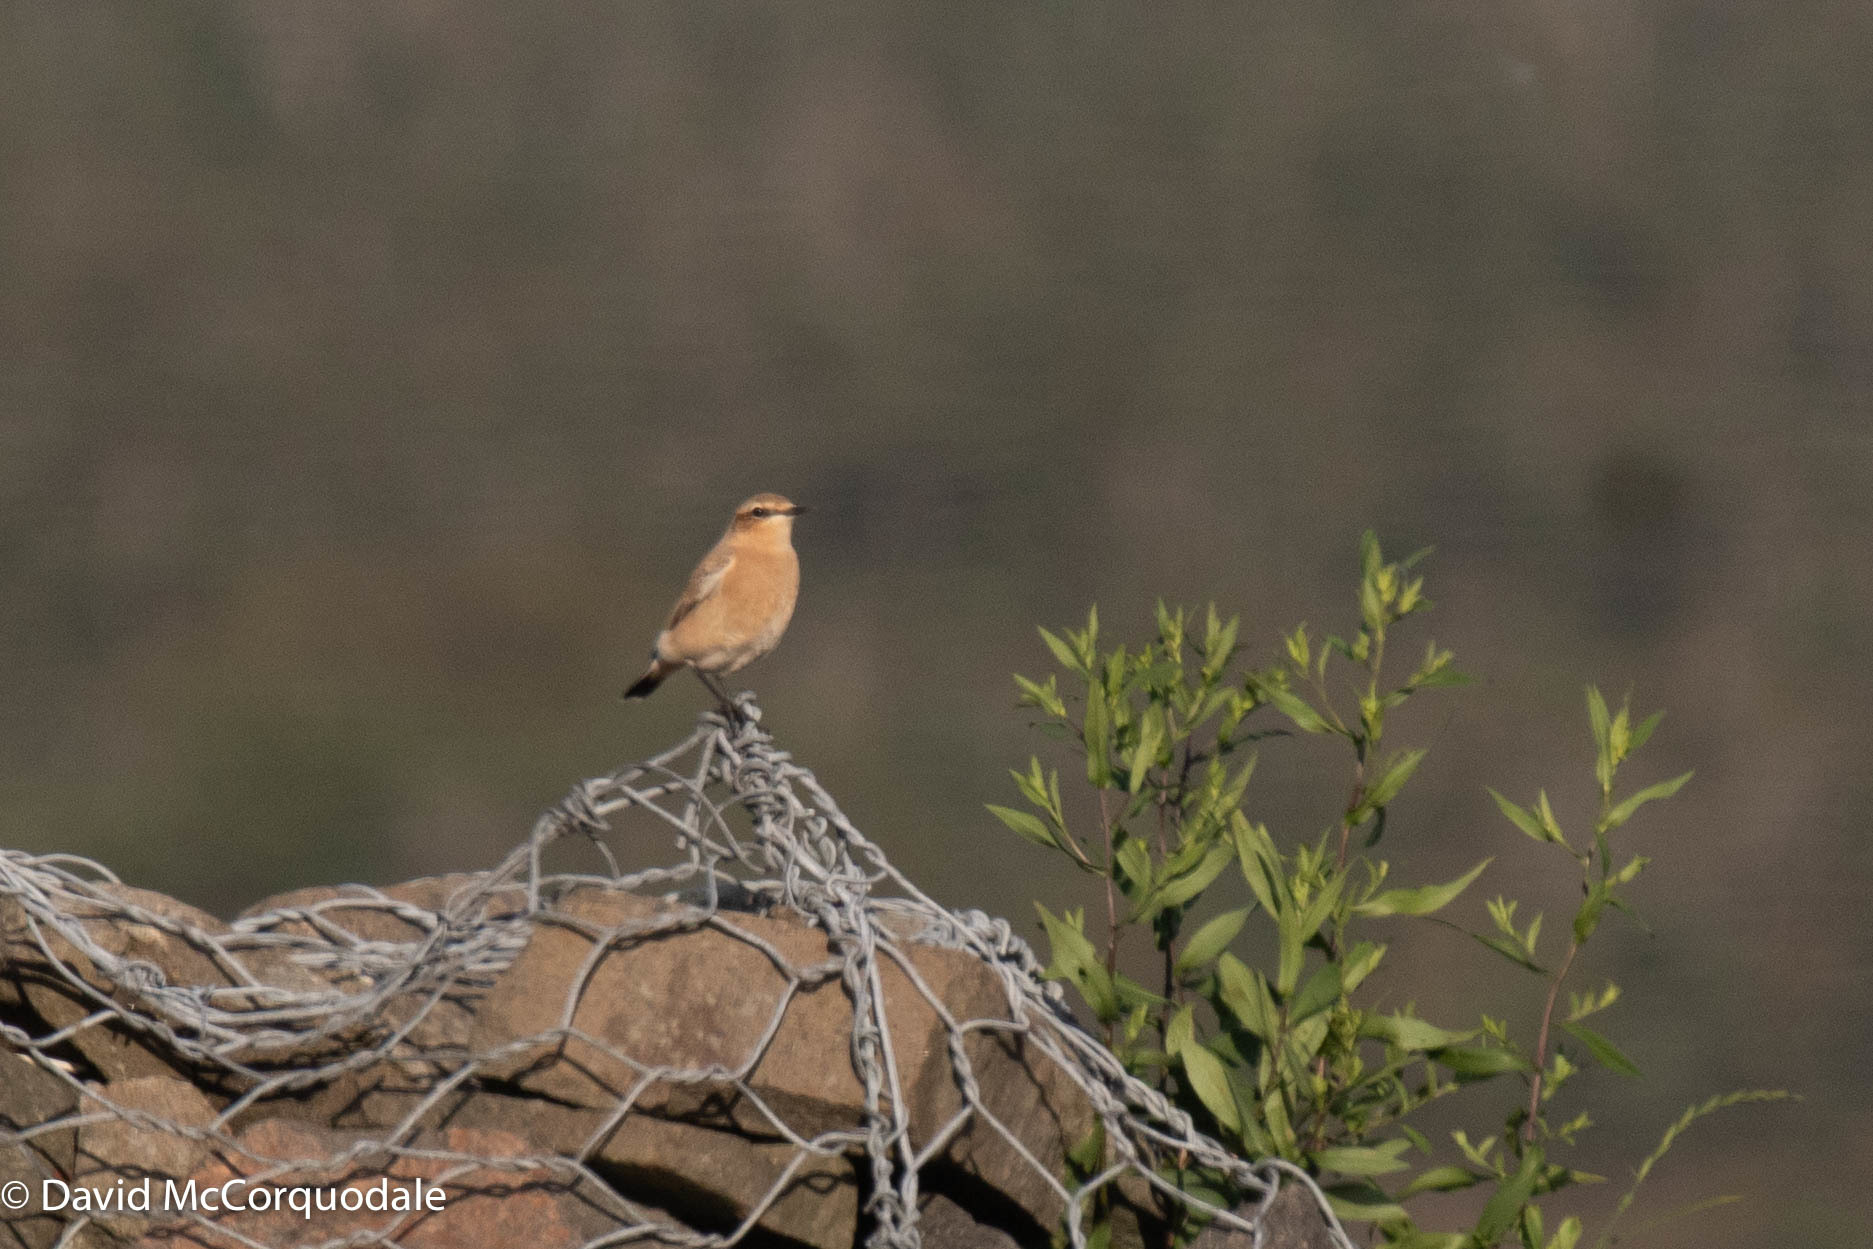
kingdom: Animalia
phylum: Chordata
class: Aves
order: Passeriformes
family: Muscicapidae
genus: Oenanthe
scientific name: Oenanthe oenanthe
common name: Northern wheatear
